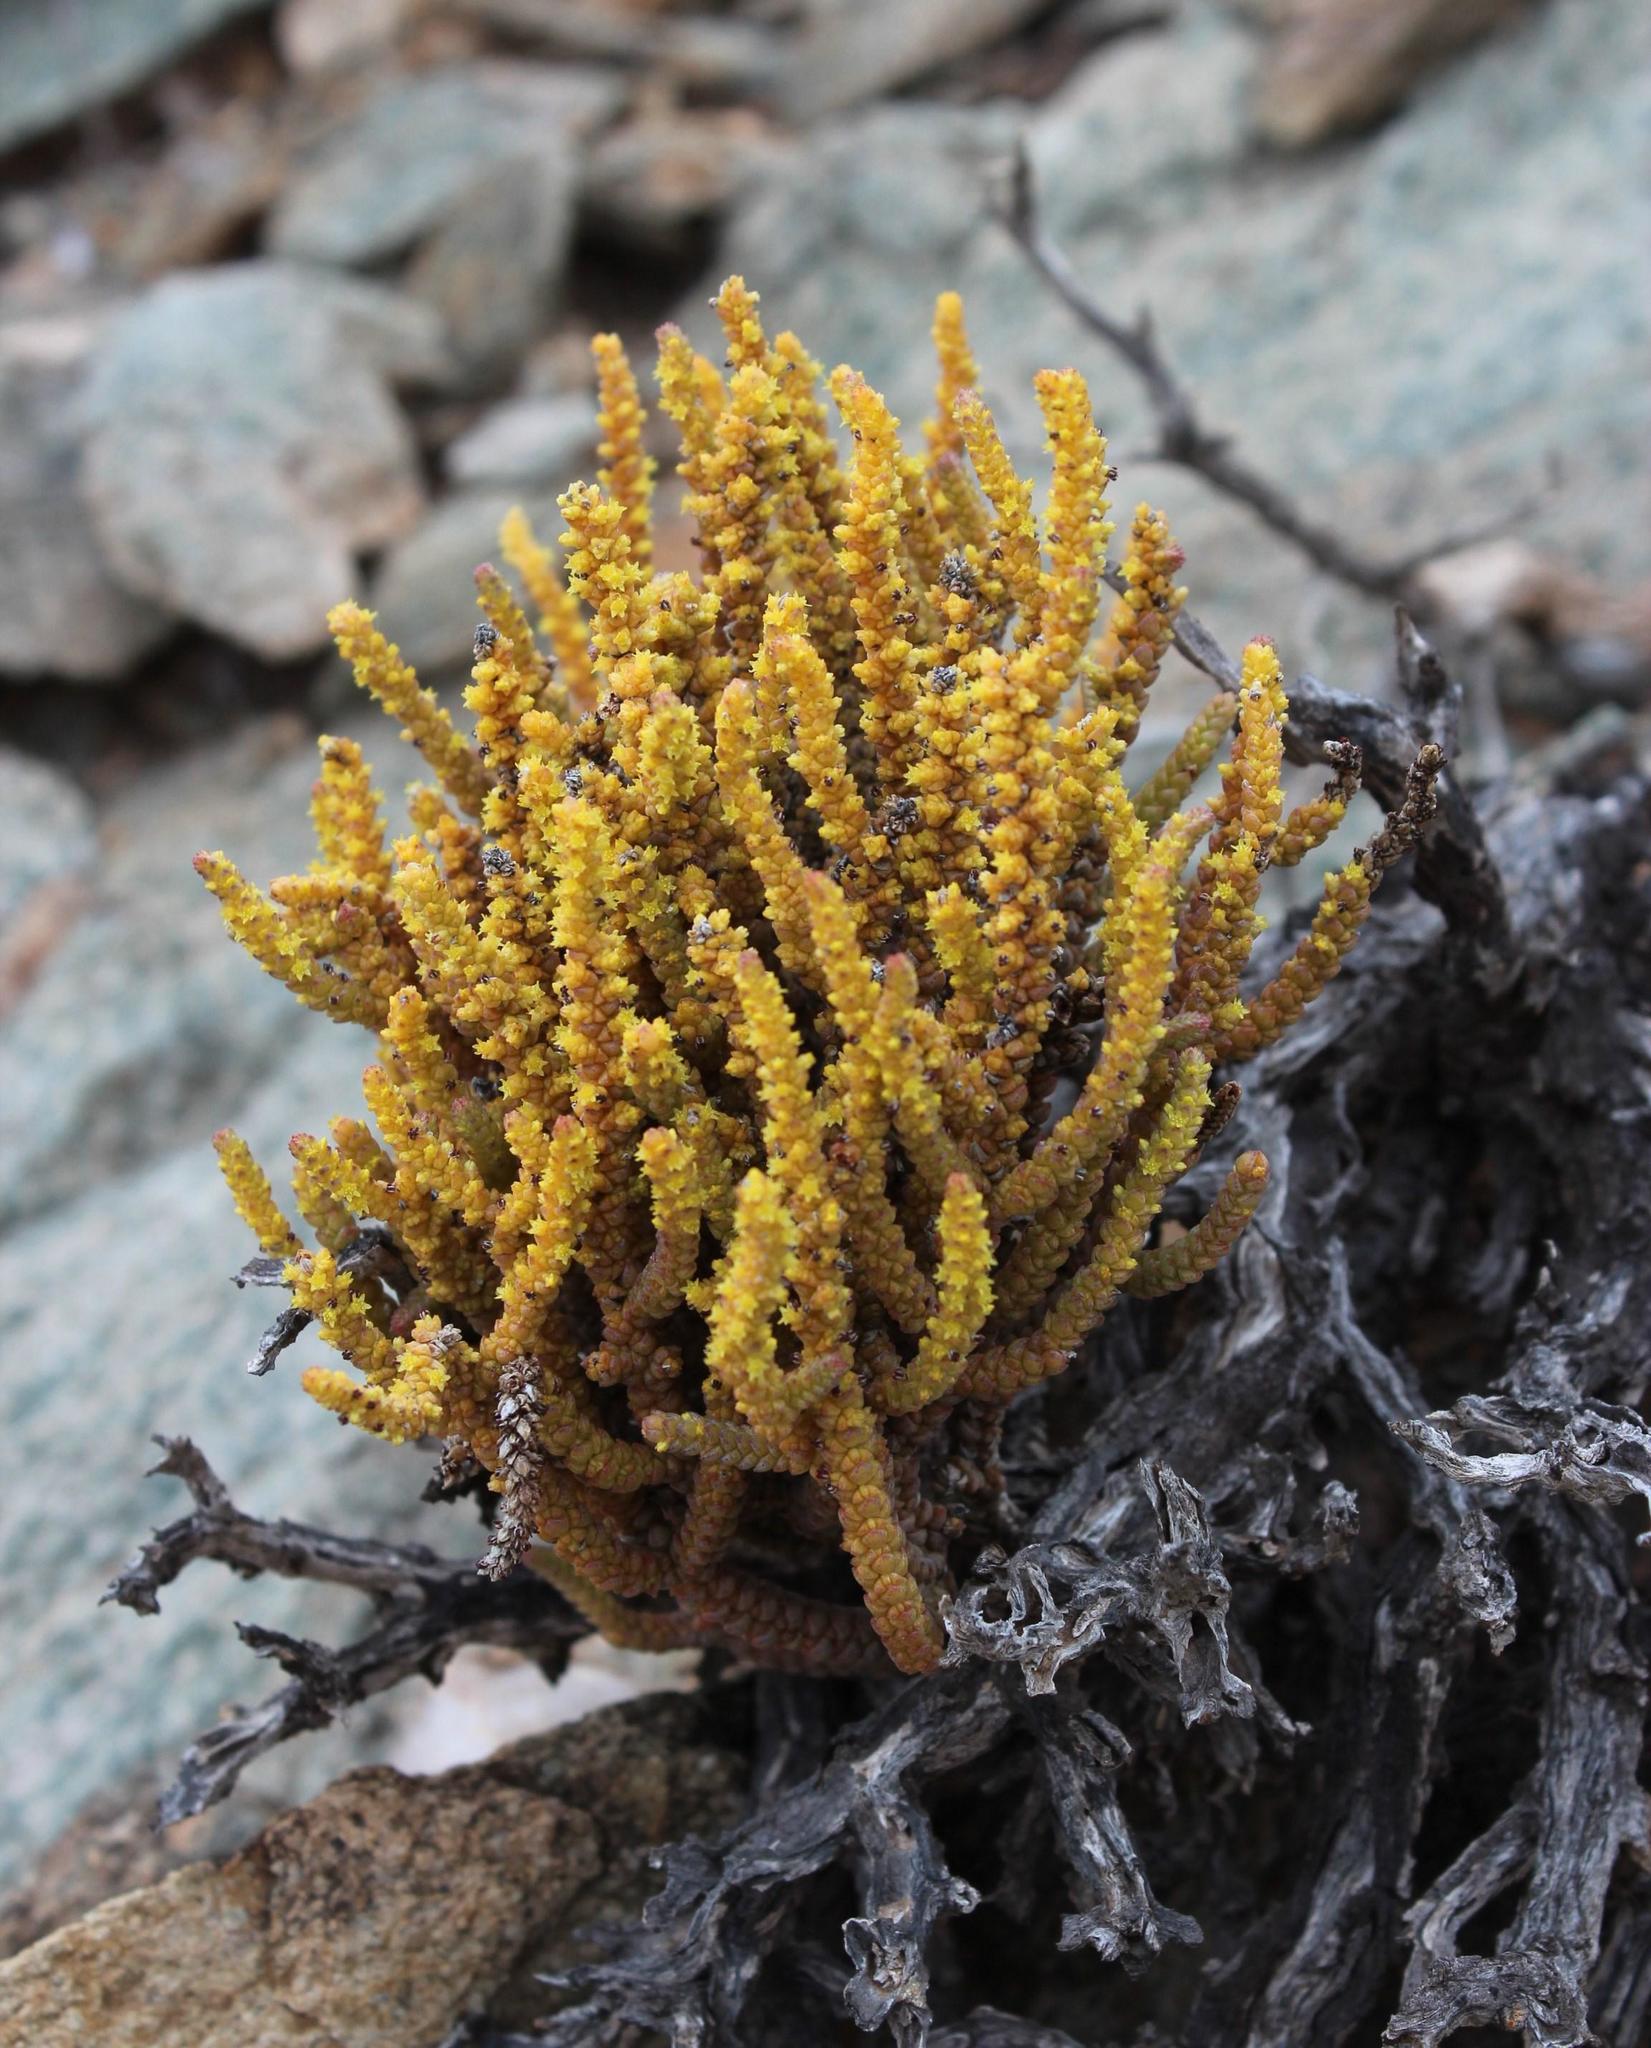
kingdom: Plantae
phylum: Tracheophyta
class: Magnoliopsida
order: Saxifragales
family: Crassulaceae
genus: Crassula
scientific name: Crassula muscosa
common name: Toy-cypress
